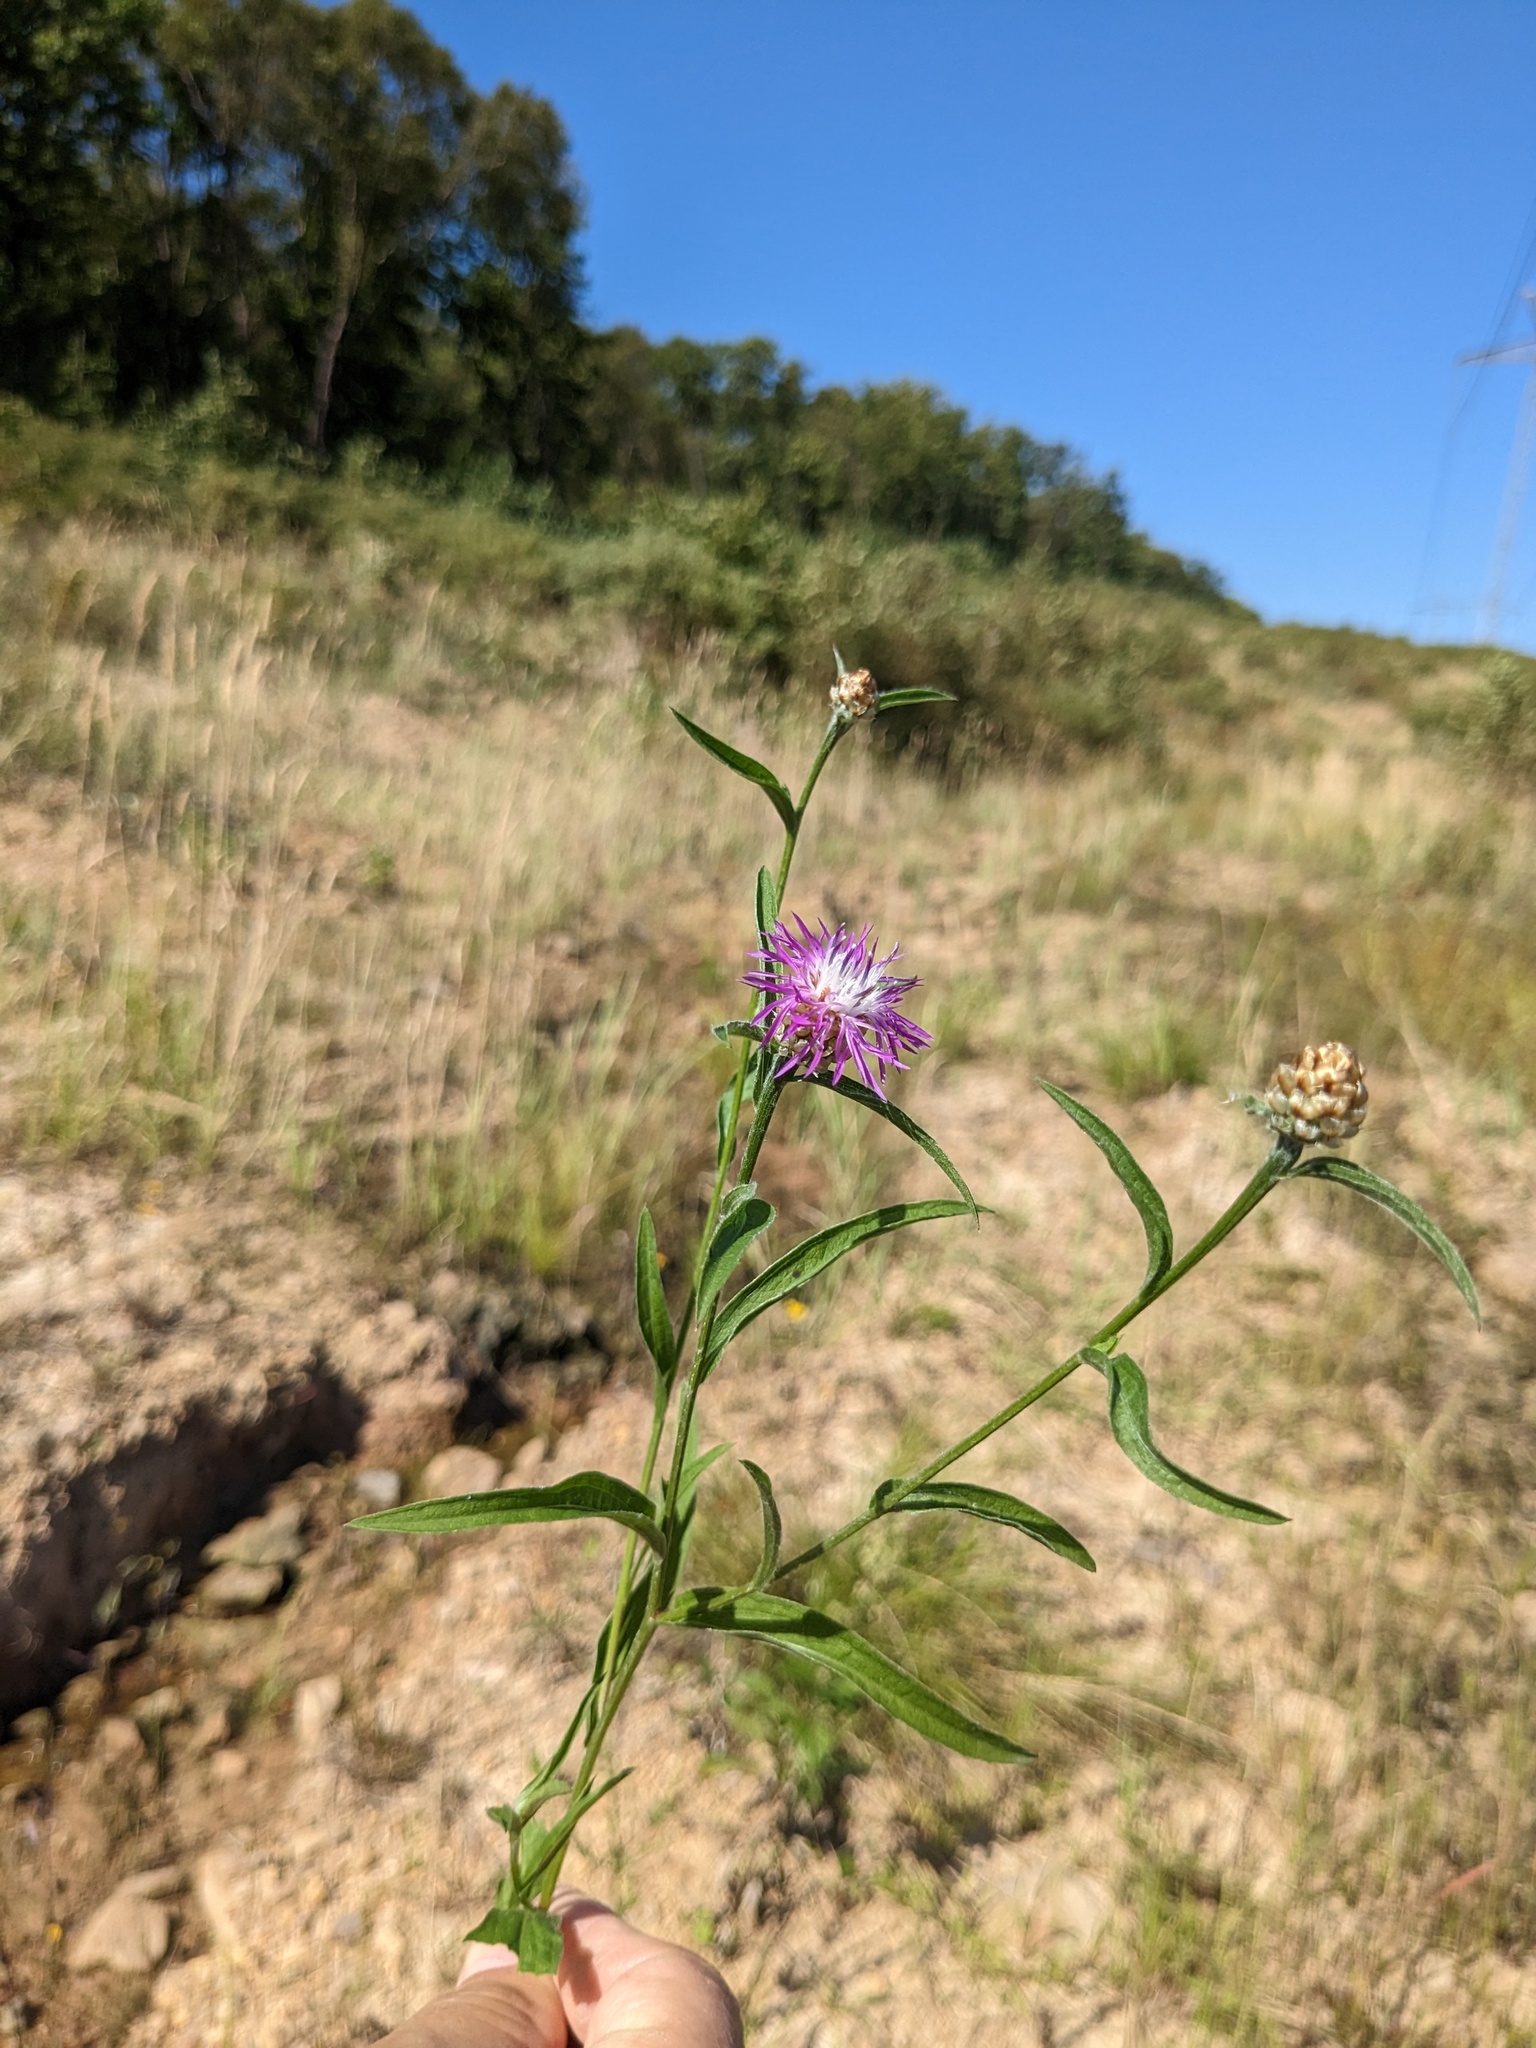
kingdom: Plantae
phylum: Tracheophyta
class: Magnoliopsida
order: Asterales
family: Asteraceae
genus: Centaurea
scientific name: Centaurea jacea
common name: Brown knapweed
